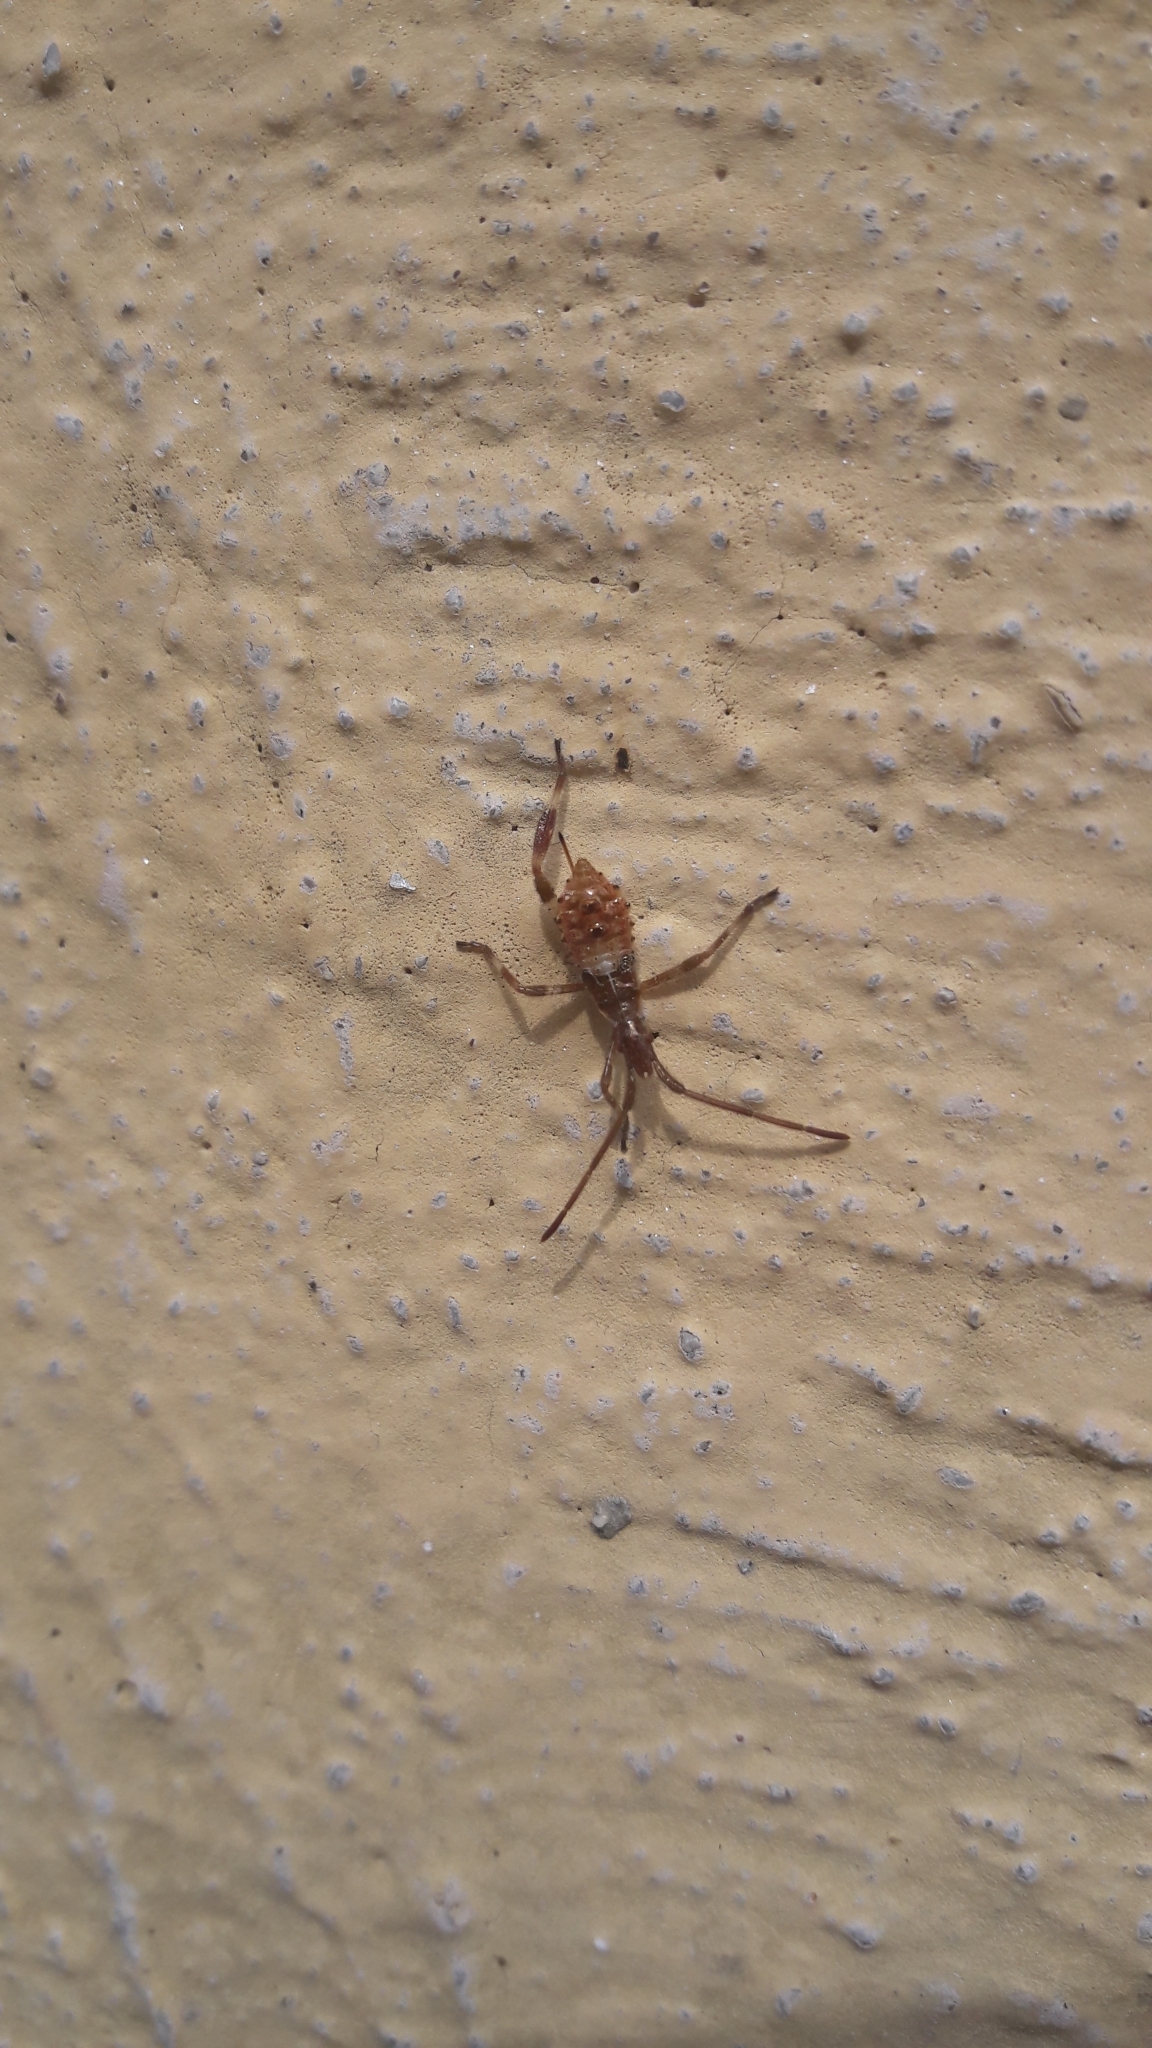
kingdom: Animalia
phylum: Arthropoda
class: Insecta
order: Hemiptera
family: Coreidae
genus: Leptoglossus
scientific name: Leptoglossus occidentalis
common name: Western conifer-seed bug
